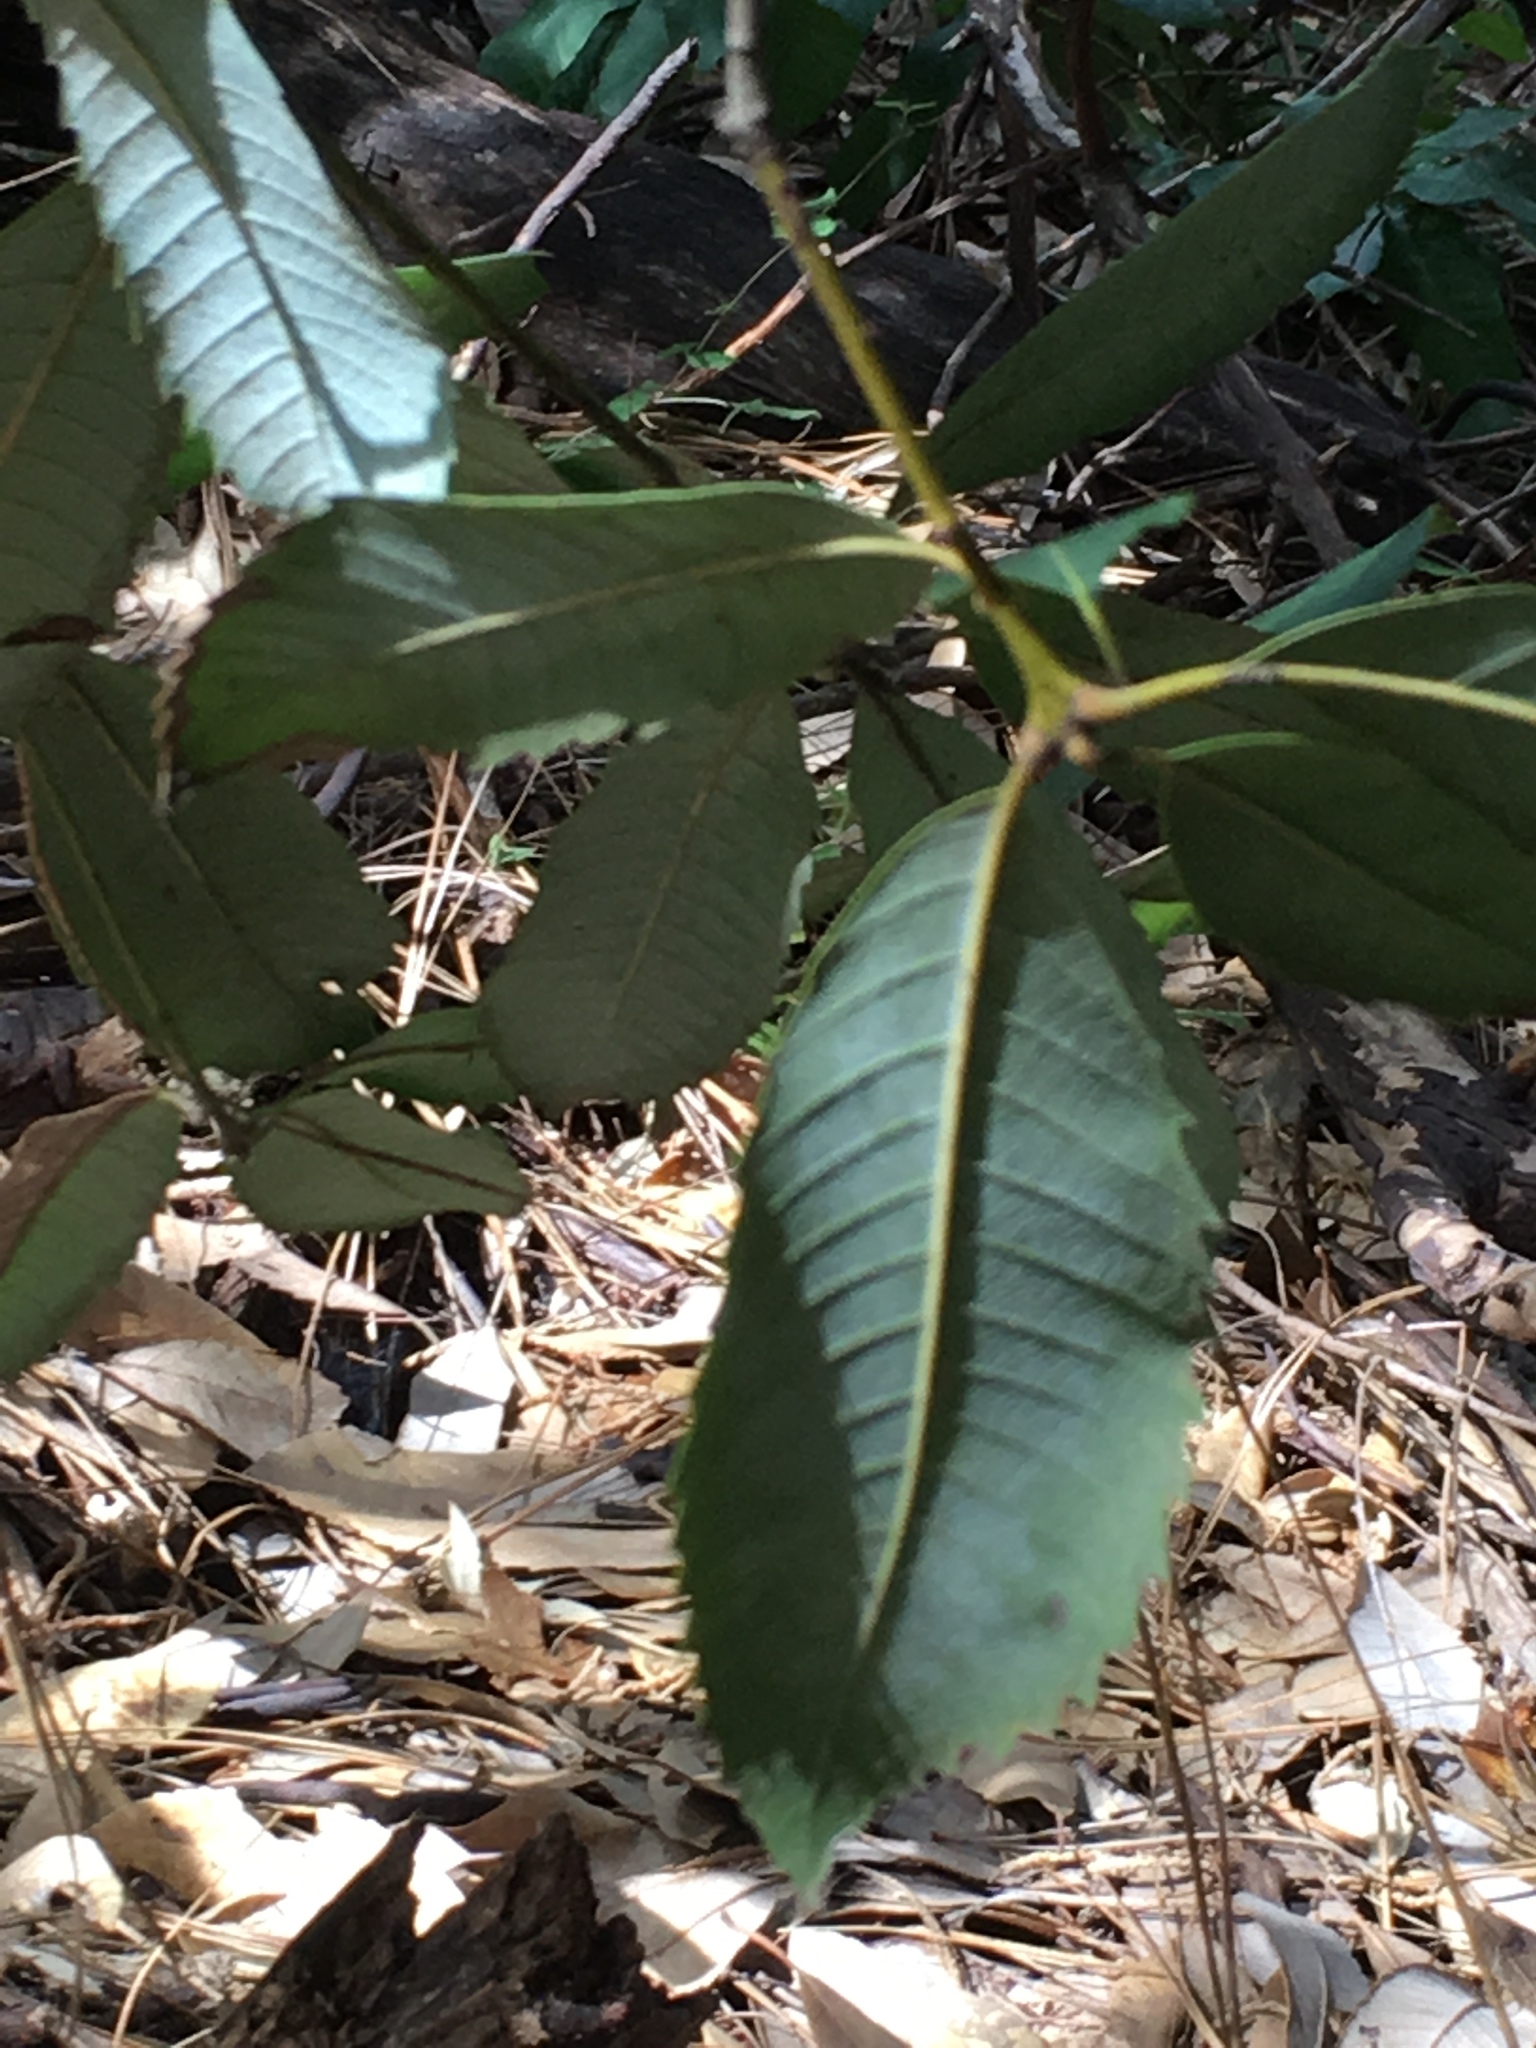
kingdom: Plantae
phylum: Tracheophyta
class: Magnoliopsida
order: Fagales
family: Fagaceae
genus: Notholithocarpus
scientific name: Notholithocarpus densiflorus
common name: Tan bark oak
